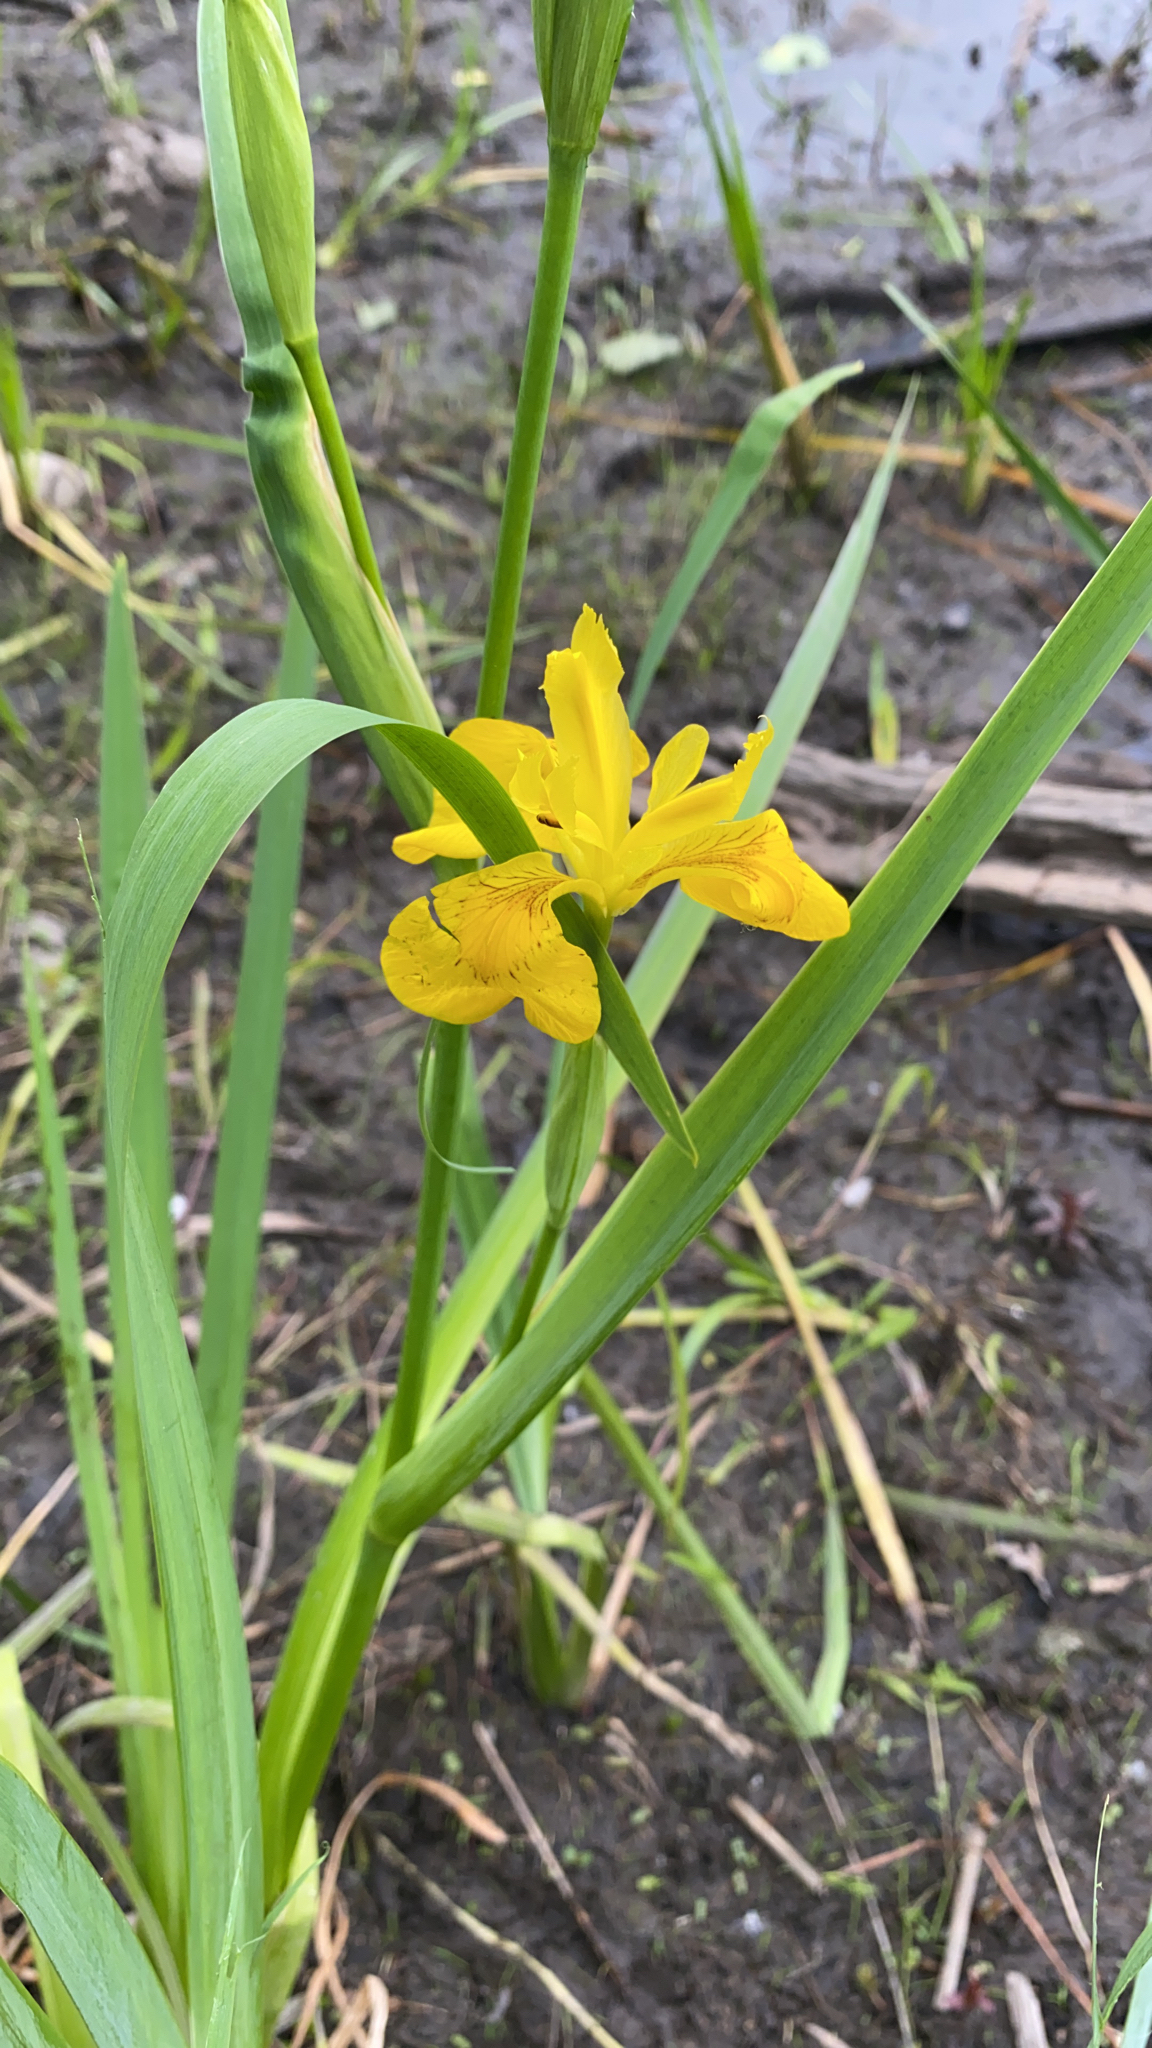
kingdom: Plantae
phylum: Tracheophyta
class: Liliopsida
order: Asparagales
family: Iridaceae
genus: Iris
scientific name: Iris pseudacorus
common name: Yellow flag
